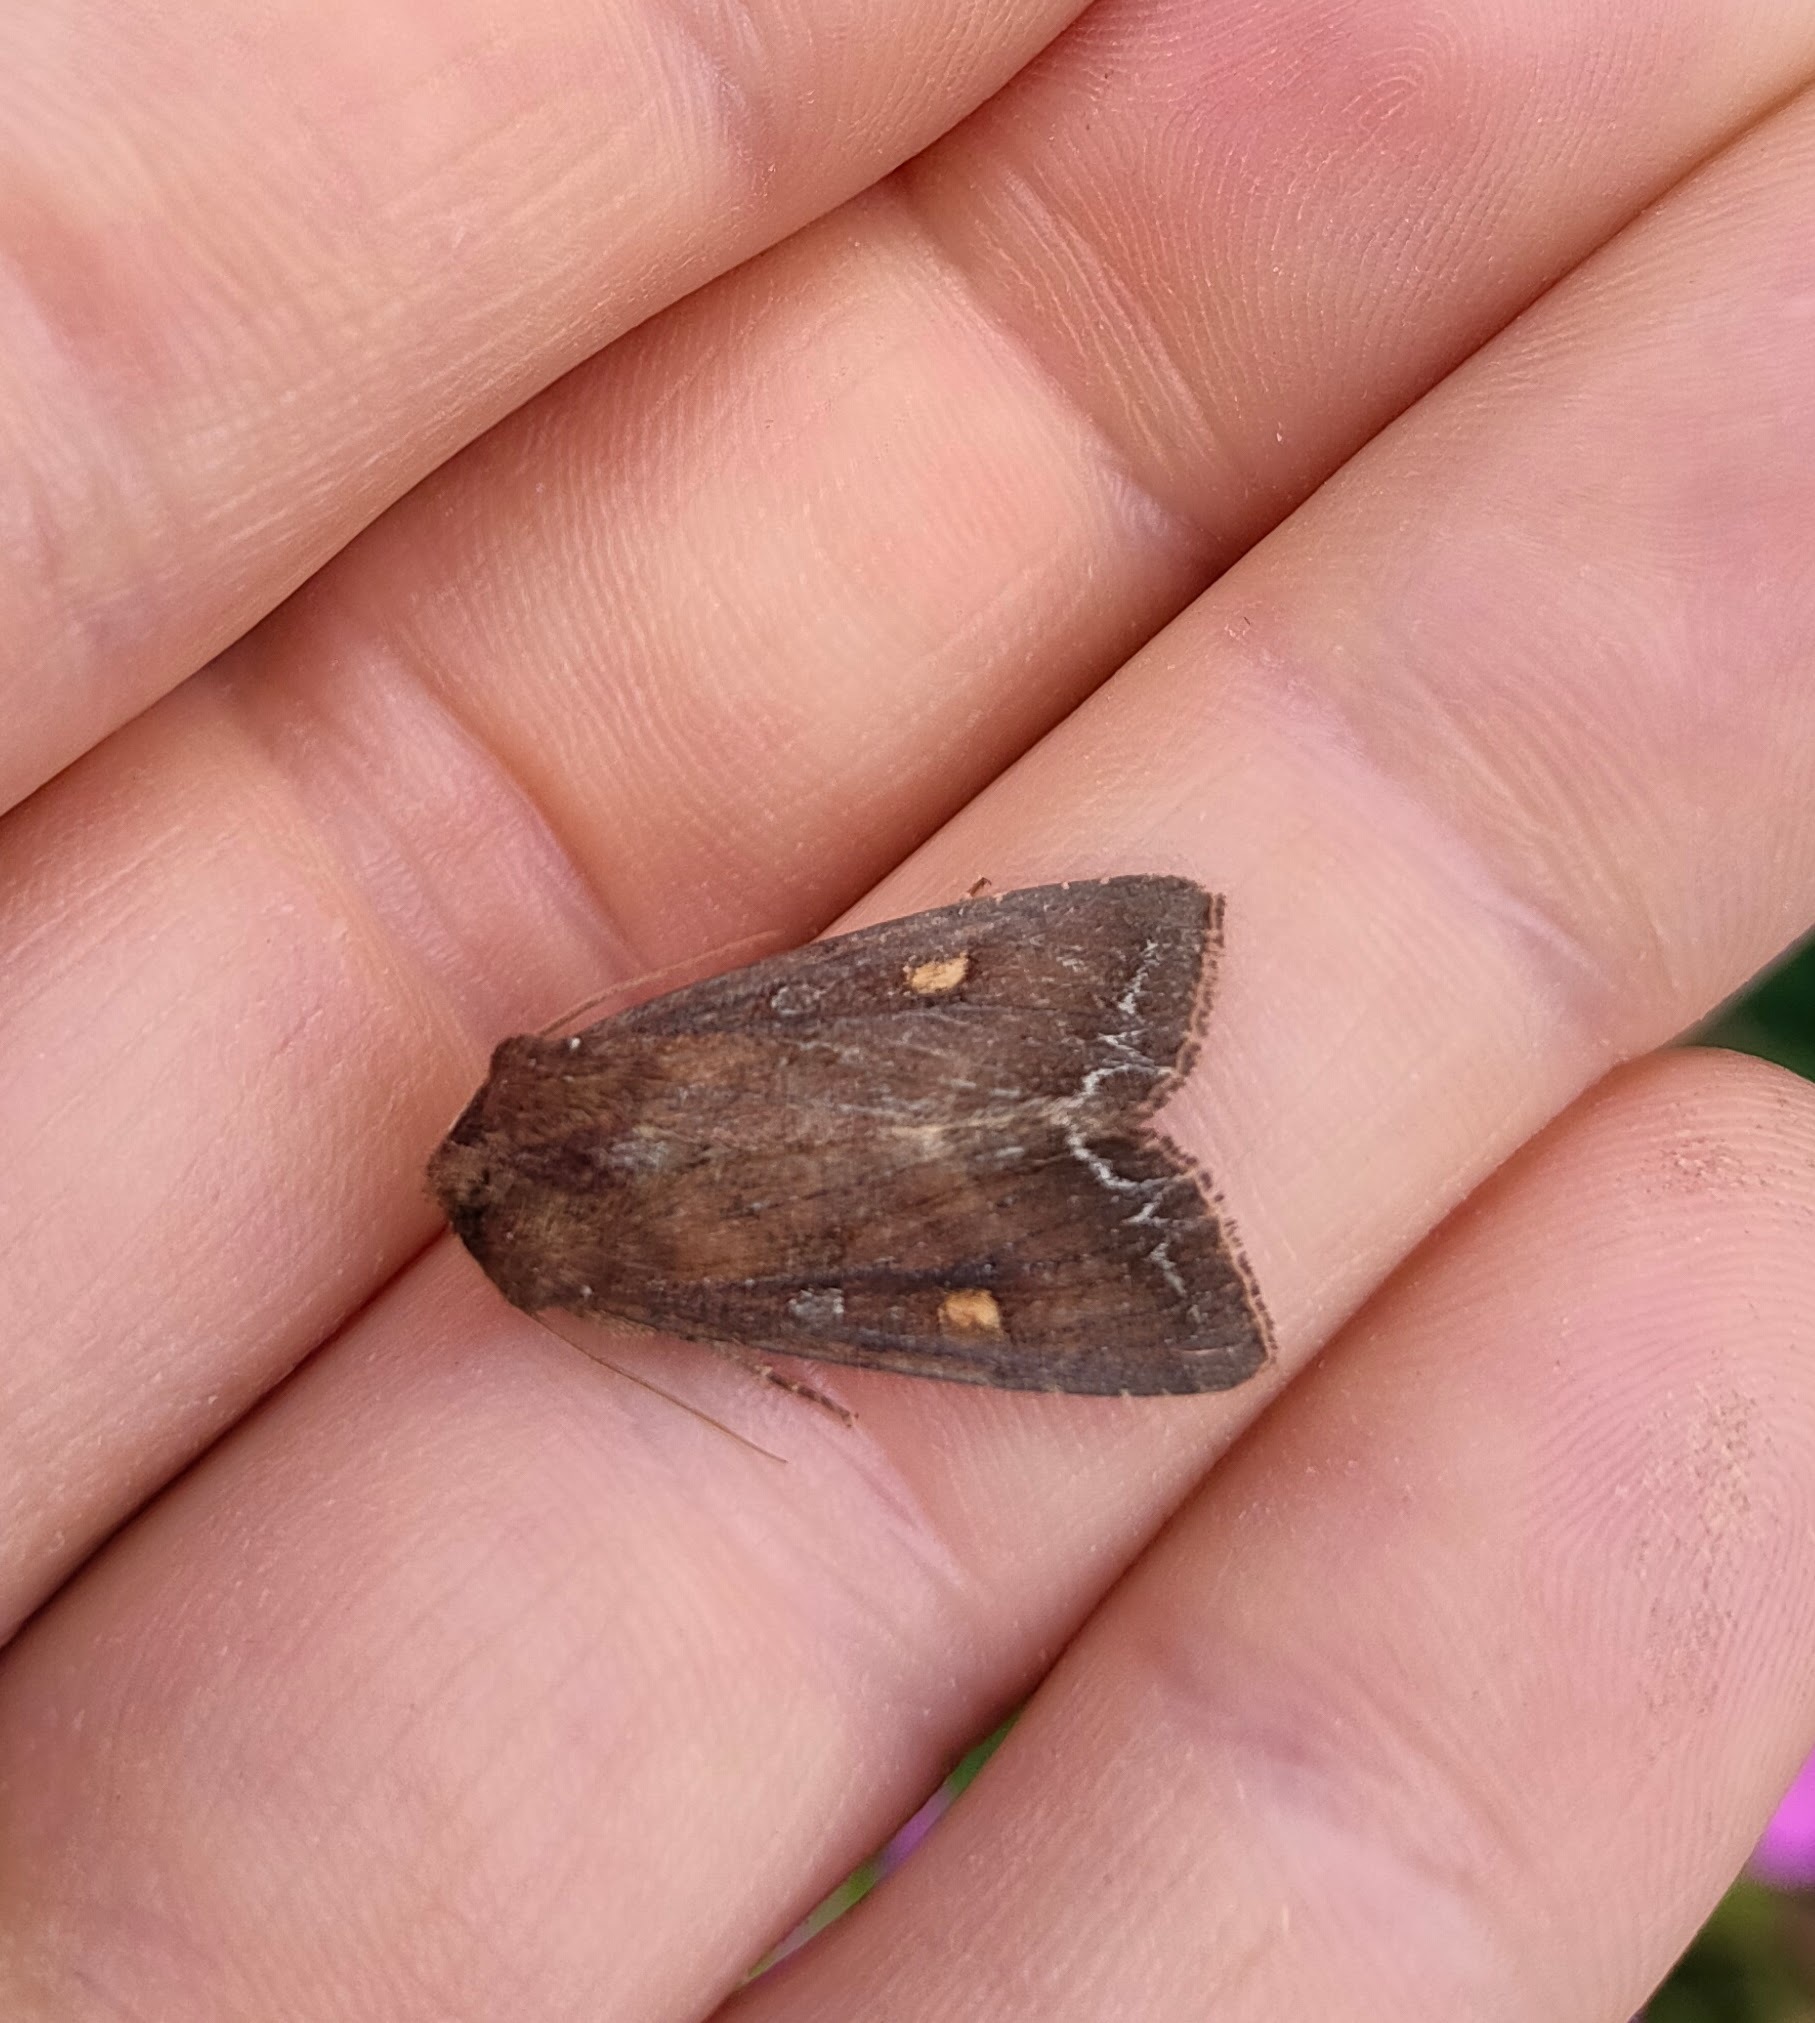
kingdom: Animalia
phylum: Arthropoda
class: Insecta
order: Lepidoptera
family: Noctuidae
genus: Lacanobia
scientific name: Lacanobia oleracea
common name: Bright-line brown-eye
